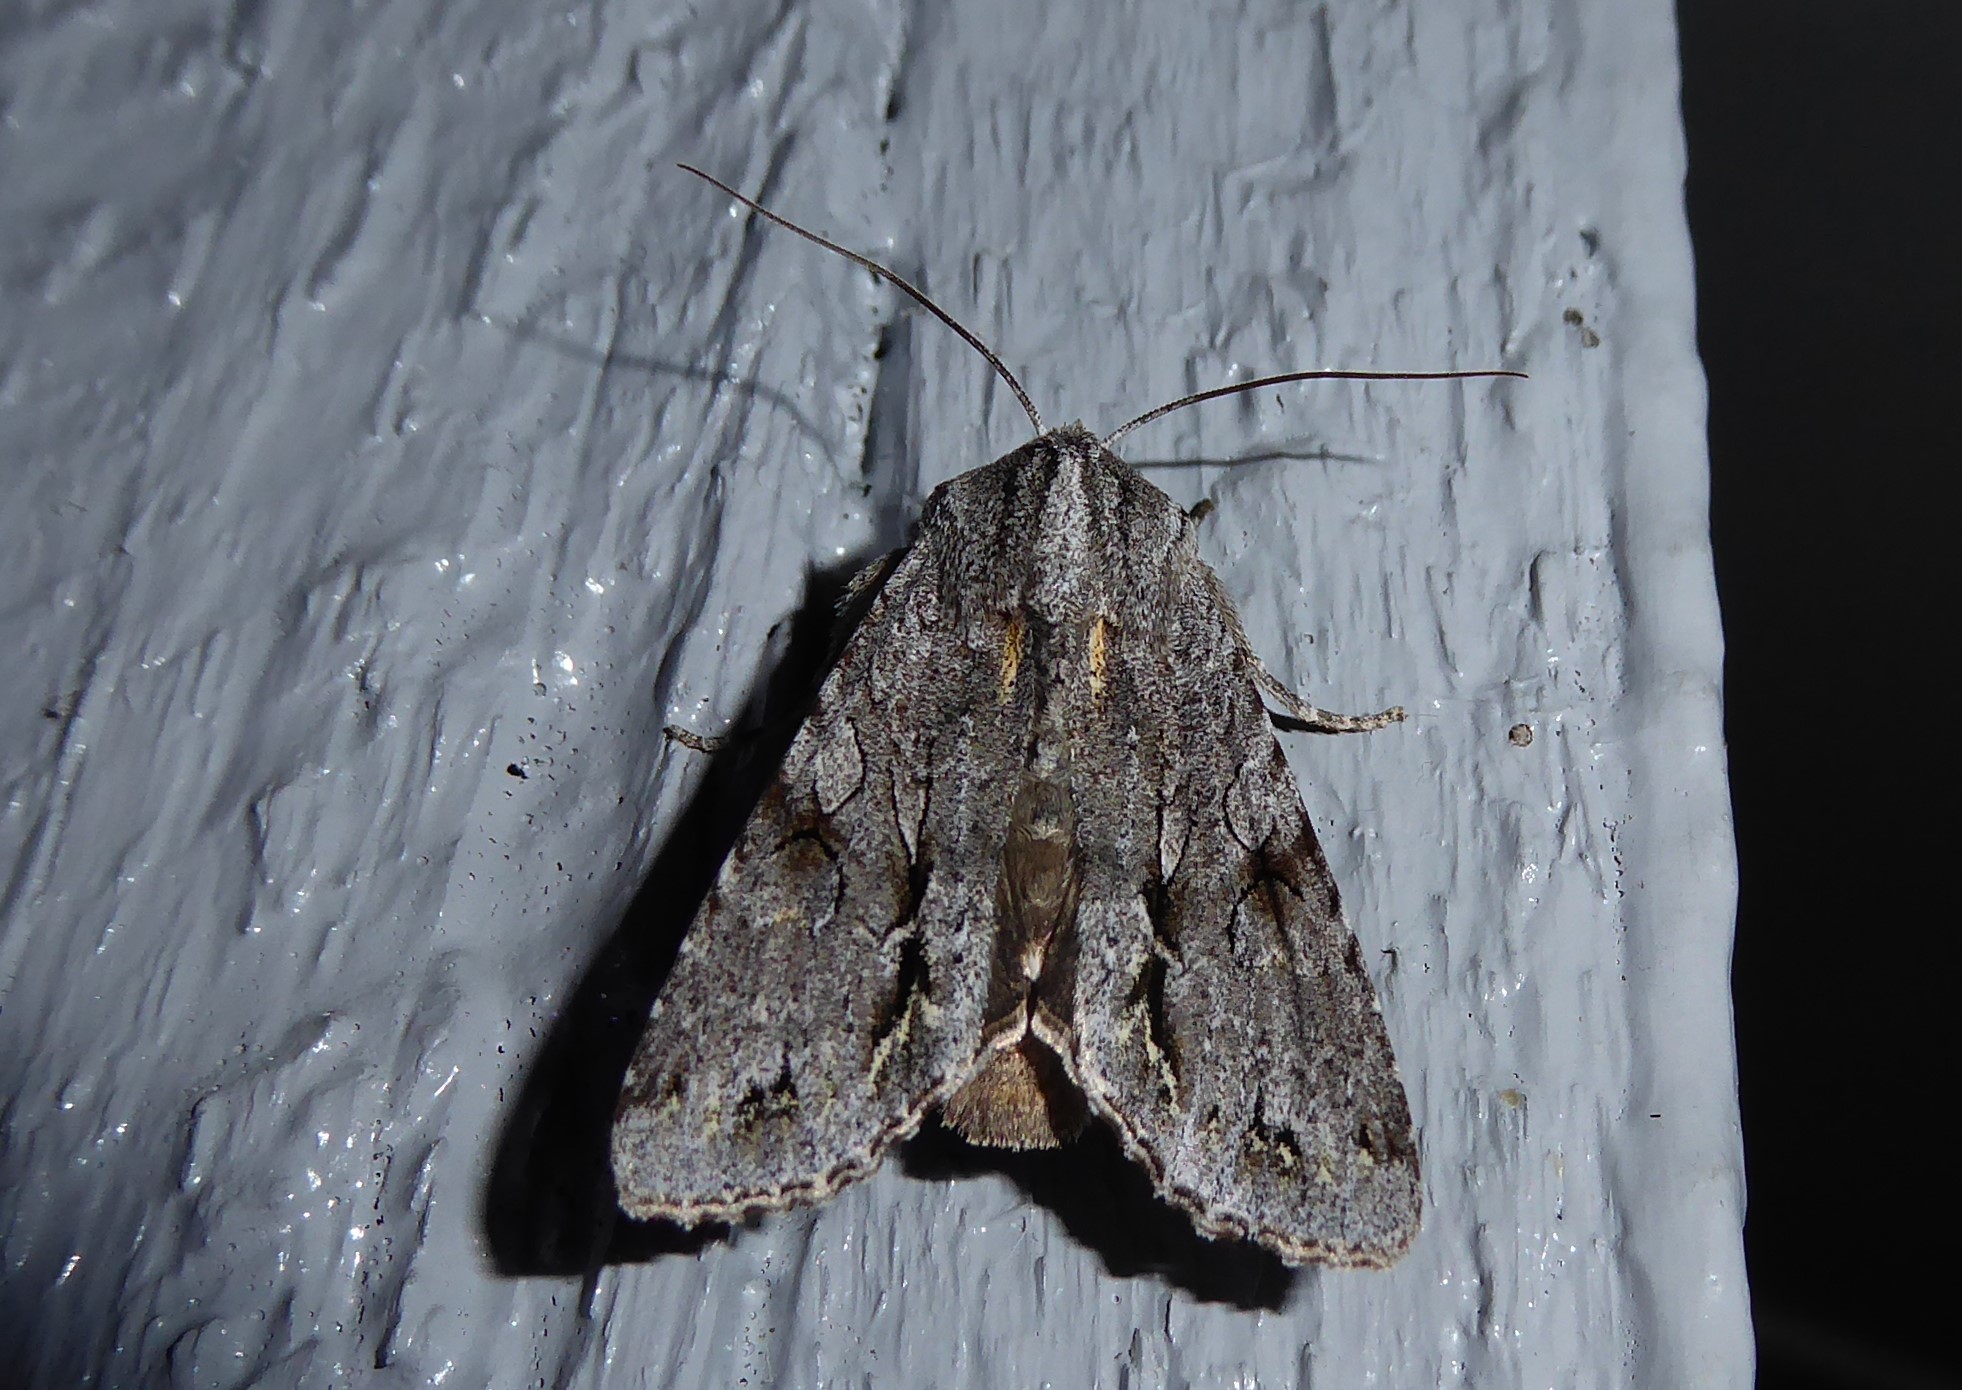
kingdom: Animalia
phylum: Arthropoda
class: Insecta
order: Lepidoptera
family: Noctuidae
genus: Ichneutica
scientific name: Ichneutica
